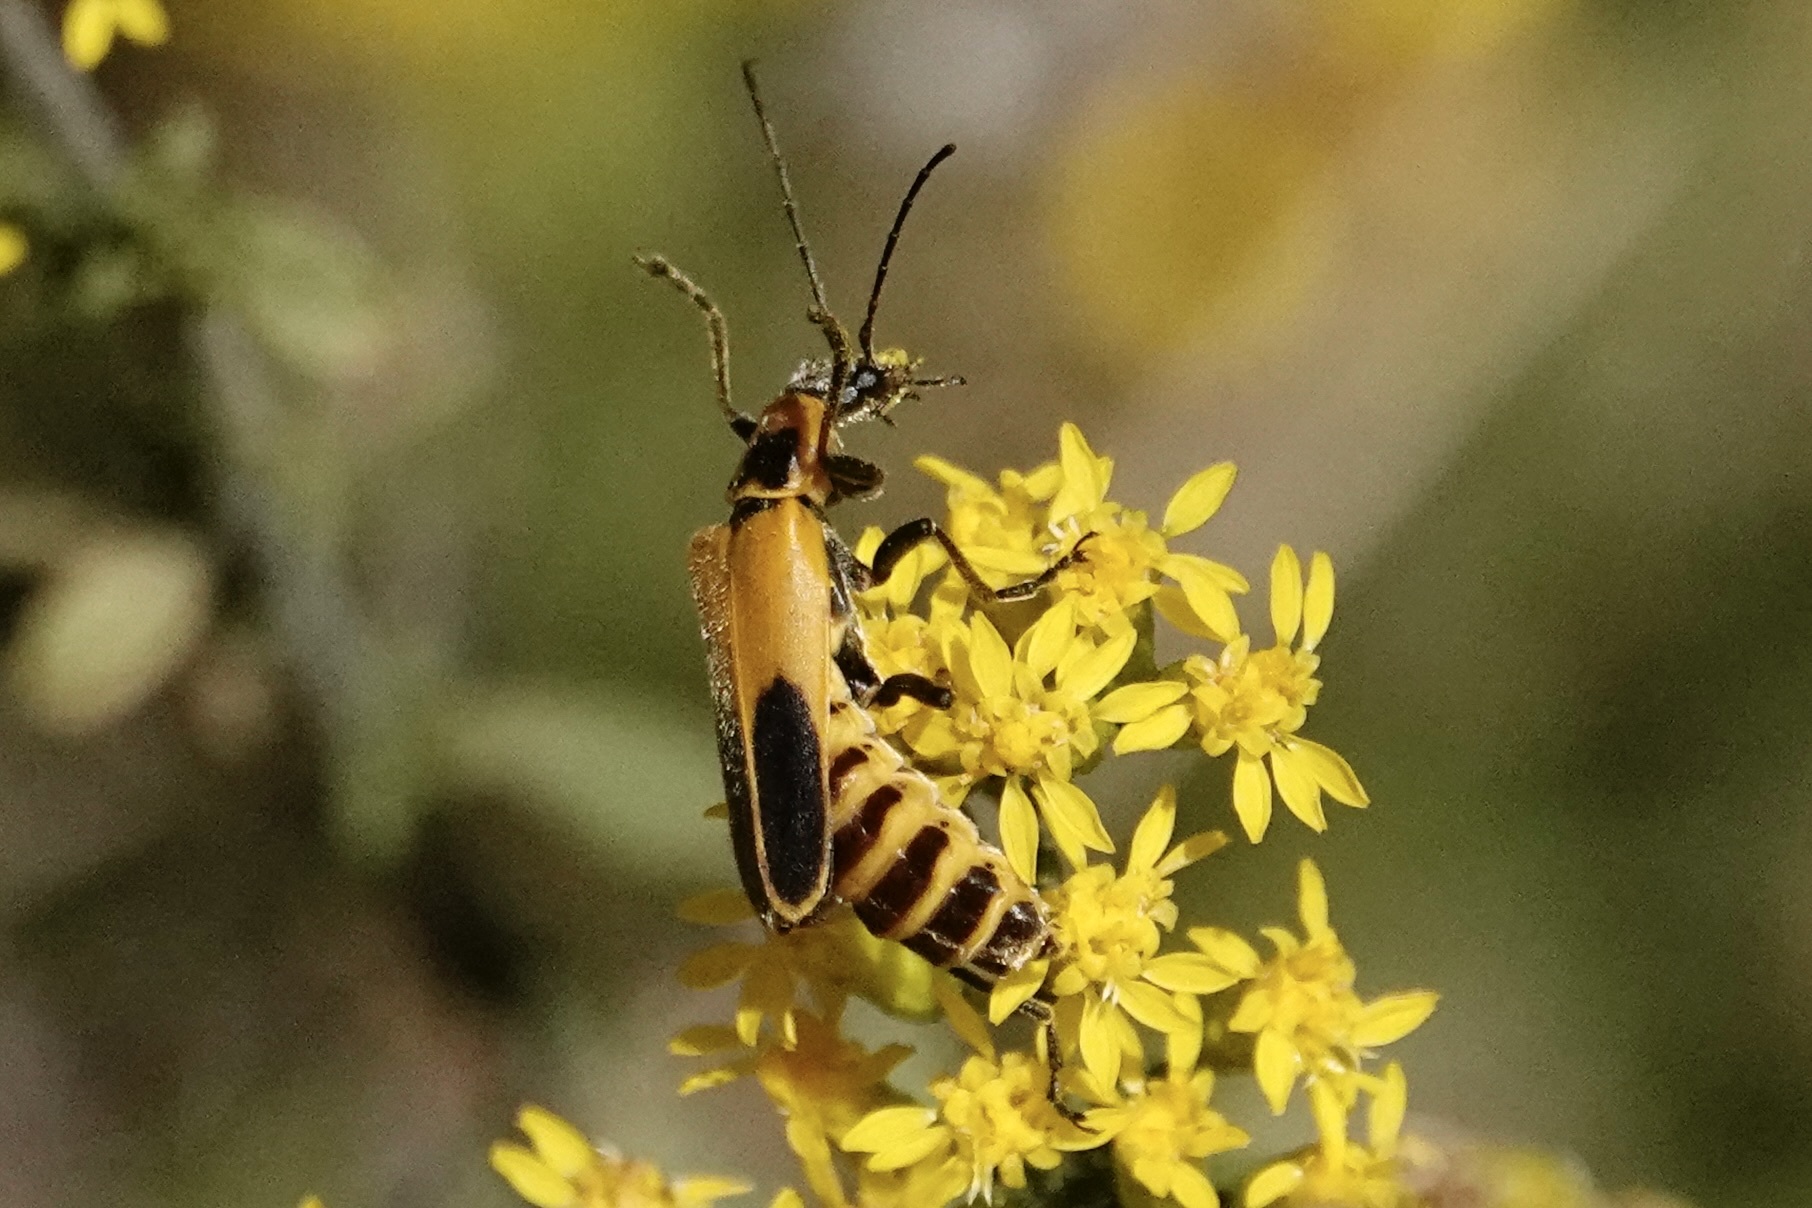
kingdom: Animalia
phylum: Arthropoda
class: Insecta
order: Coleoptera
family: Cantharidae
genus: Chauliognathus
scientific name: Chauliognathus pensylvanicus
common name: Goldenrod soldier beetle
